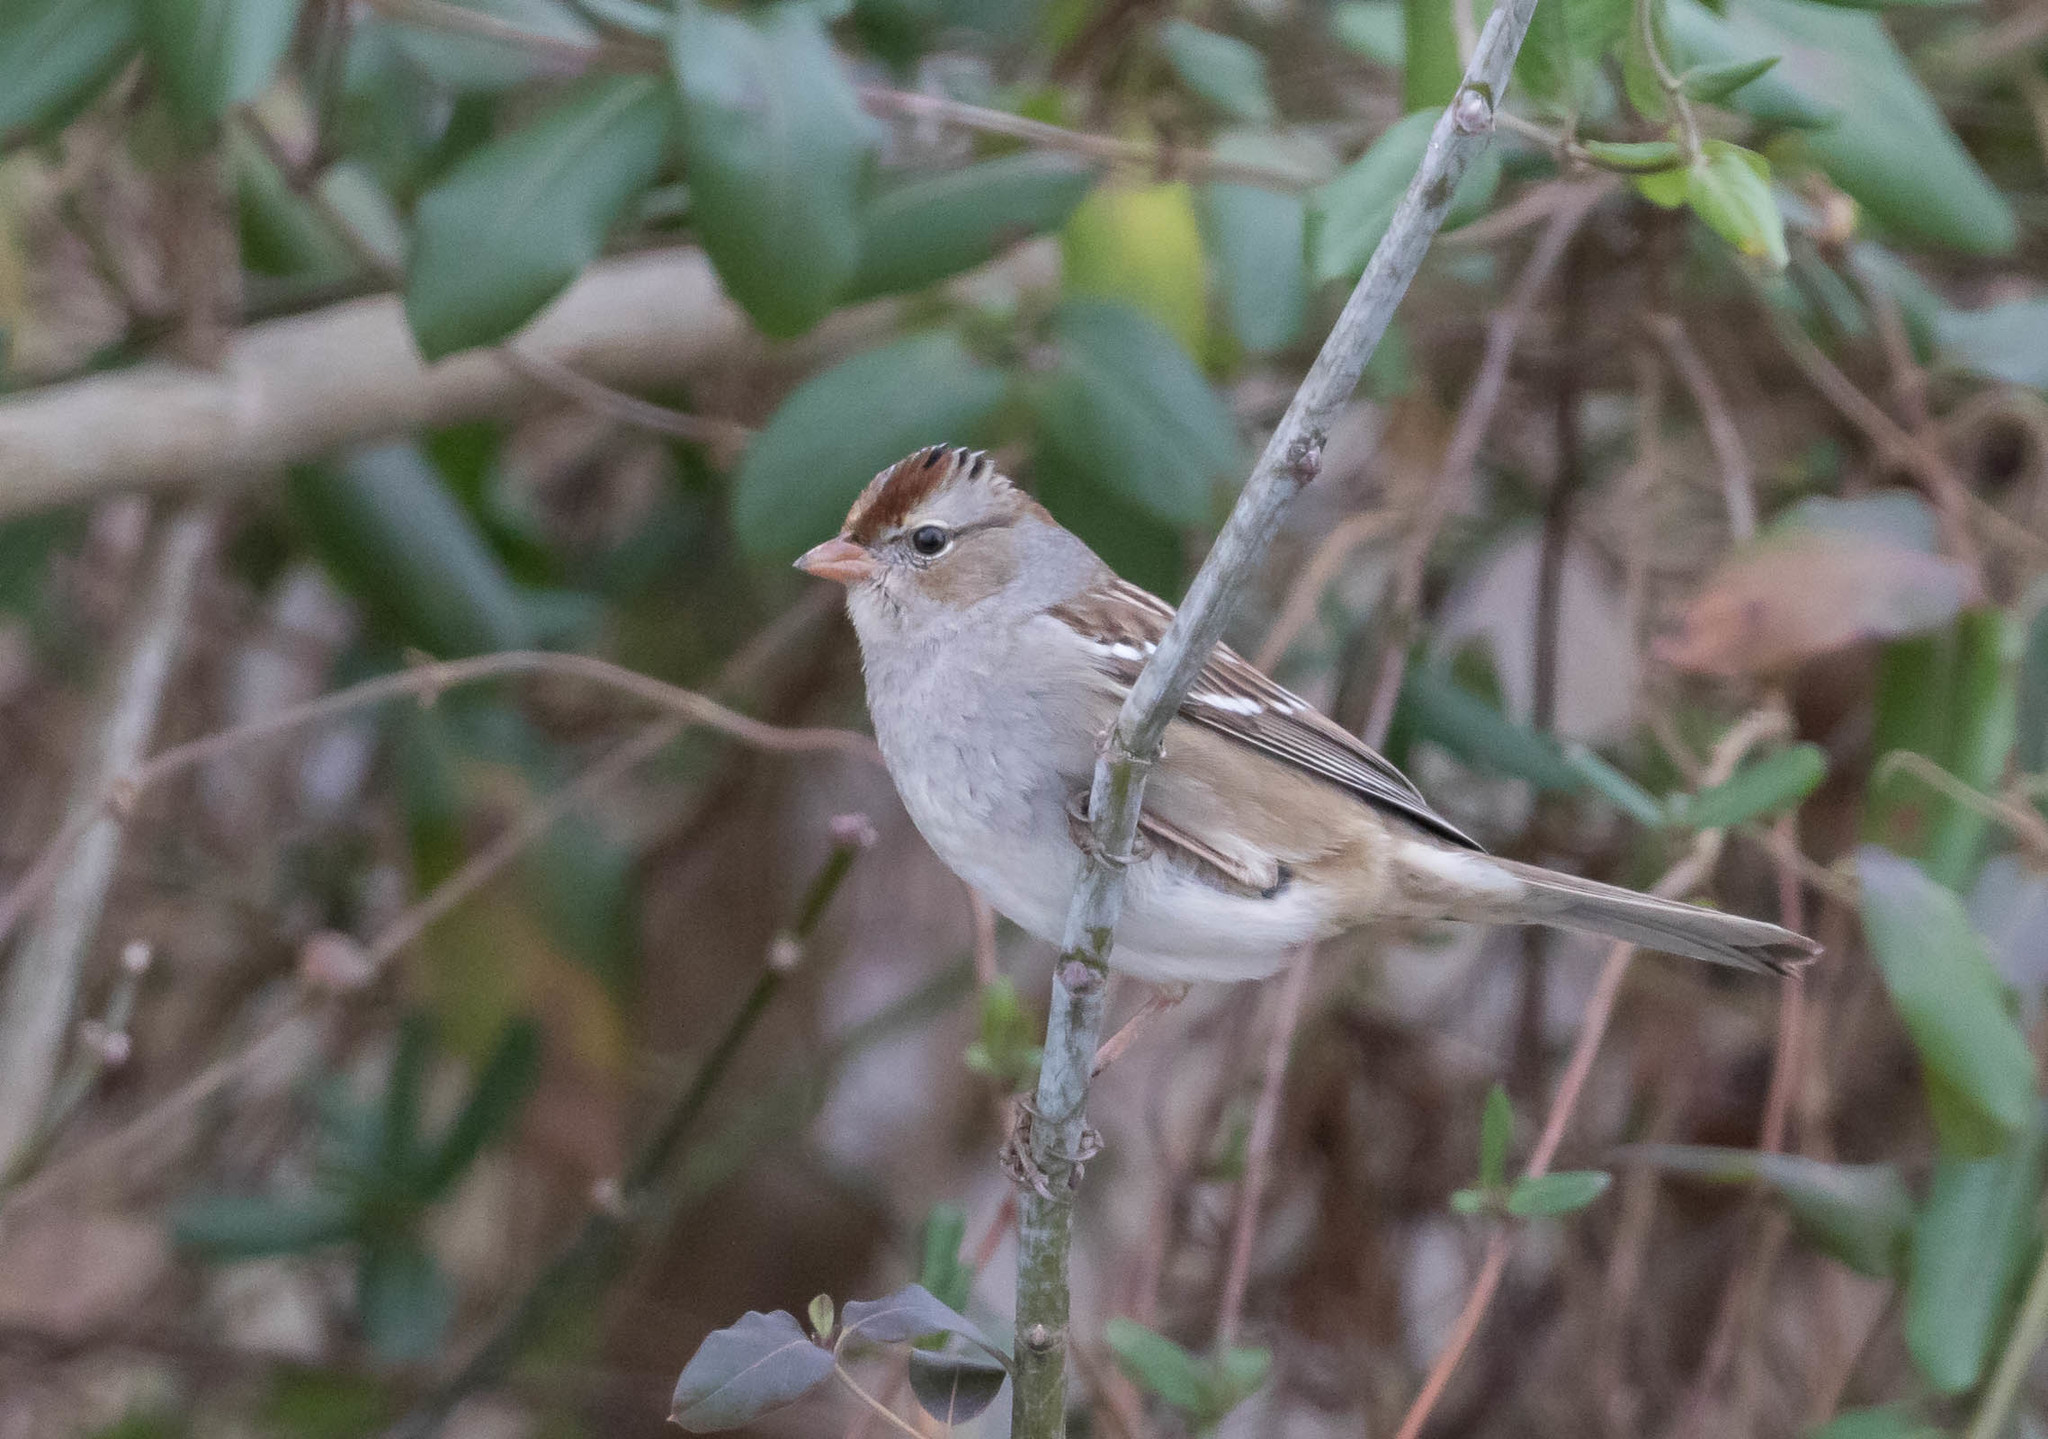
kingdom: Animalia
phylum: Chordata
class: Aves
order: Passeriformes
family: Passerellidae
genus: Zonotrichia
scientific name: Zonotrichia leucophrys
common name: White-crowned sparrow
